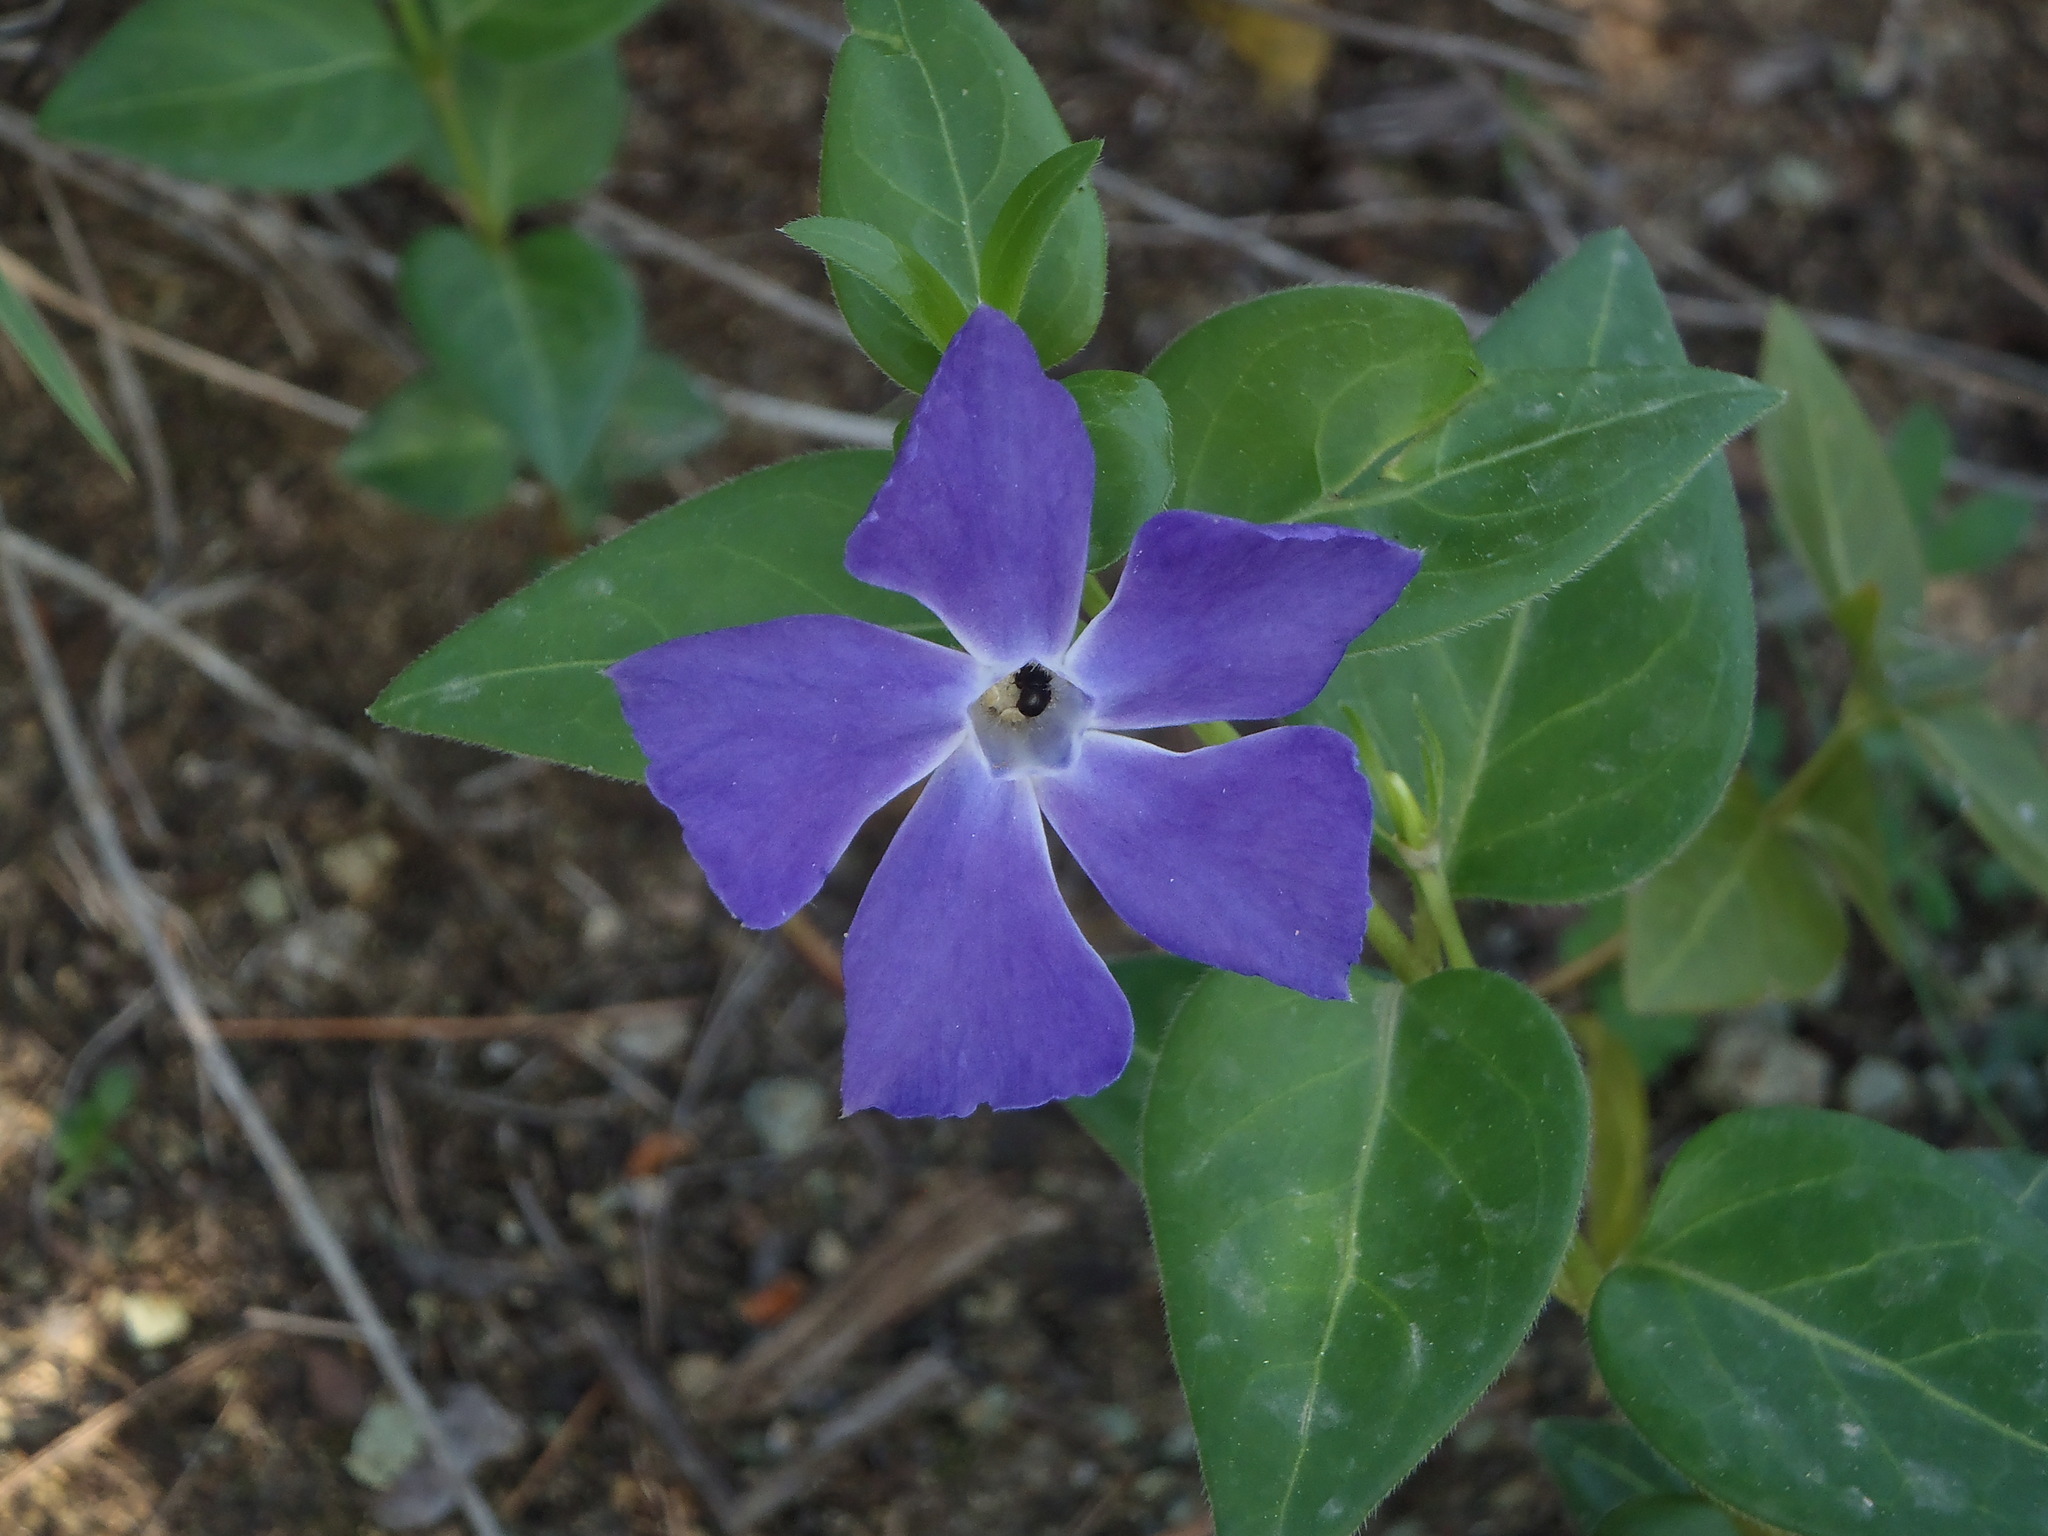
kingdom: Plantae
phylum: Tracheophyta
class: Magnoliopsida
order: Gentianales
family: Apocynaceae
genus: Vinca
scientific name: Vinca major
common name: Greater periwinkle
